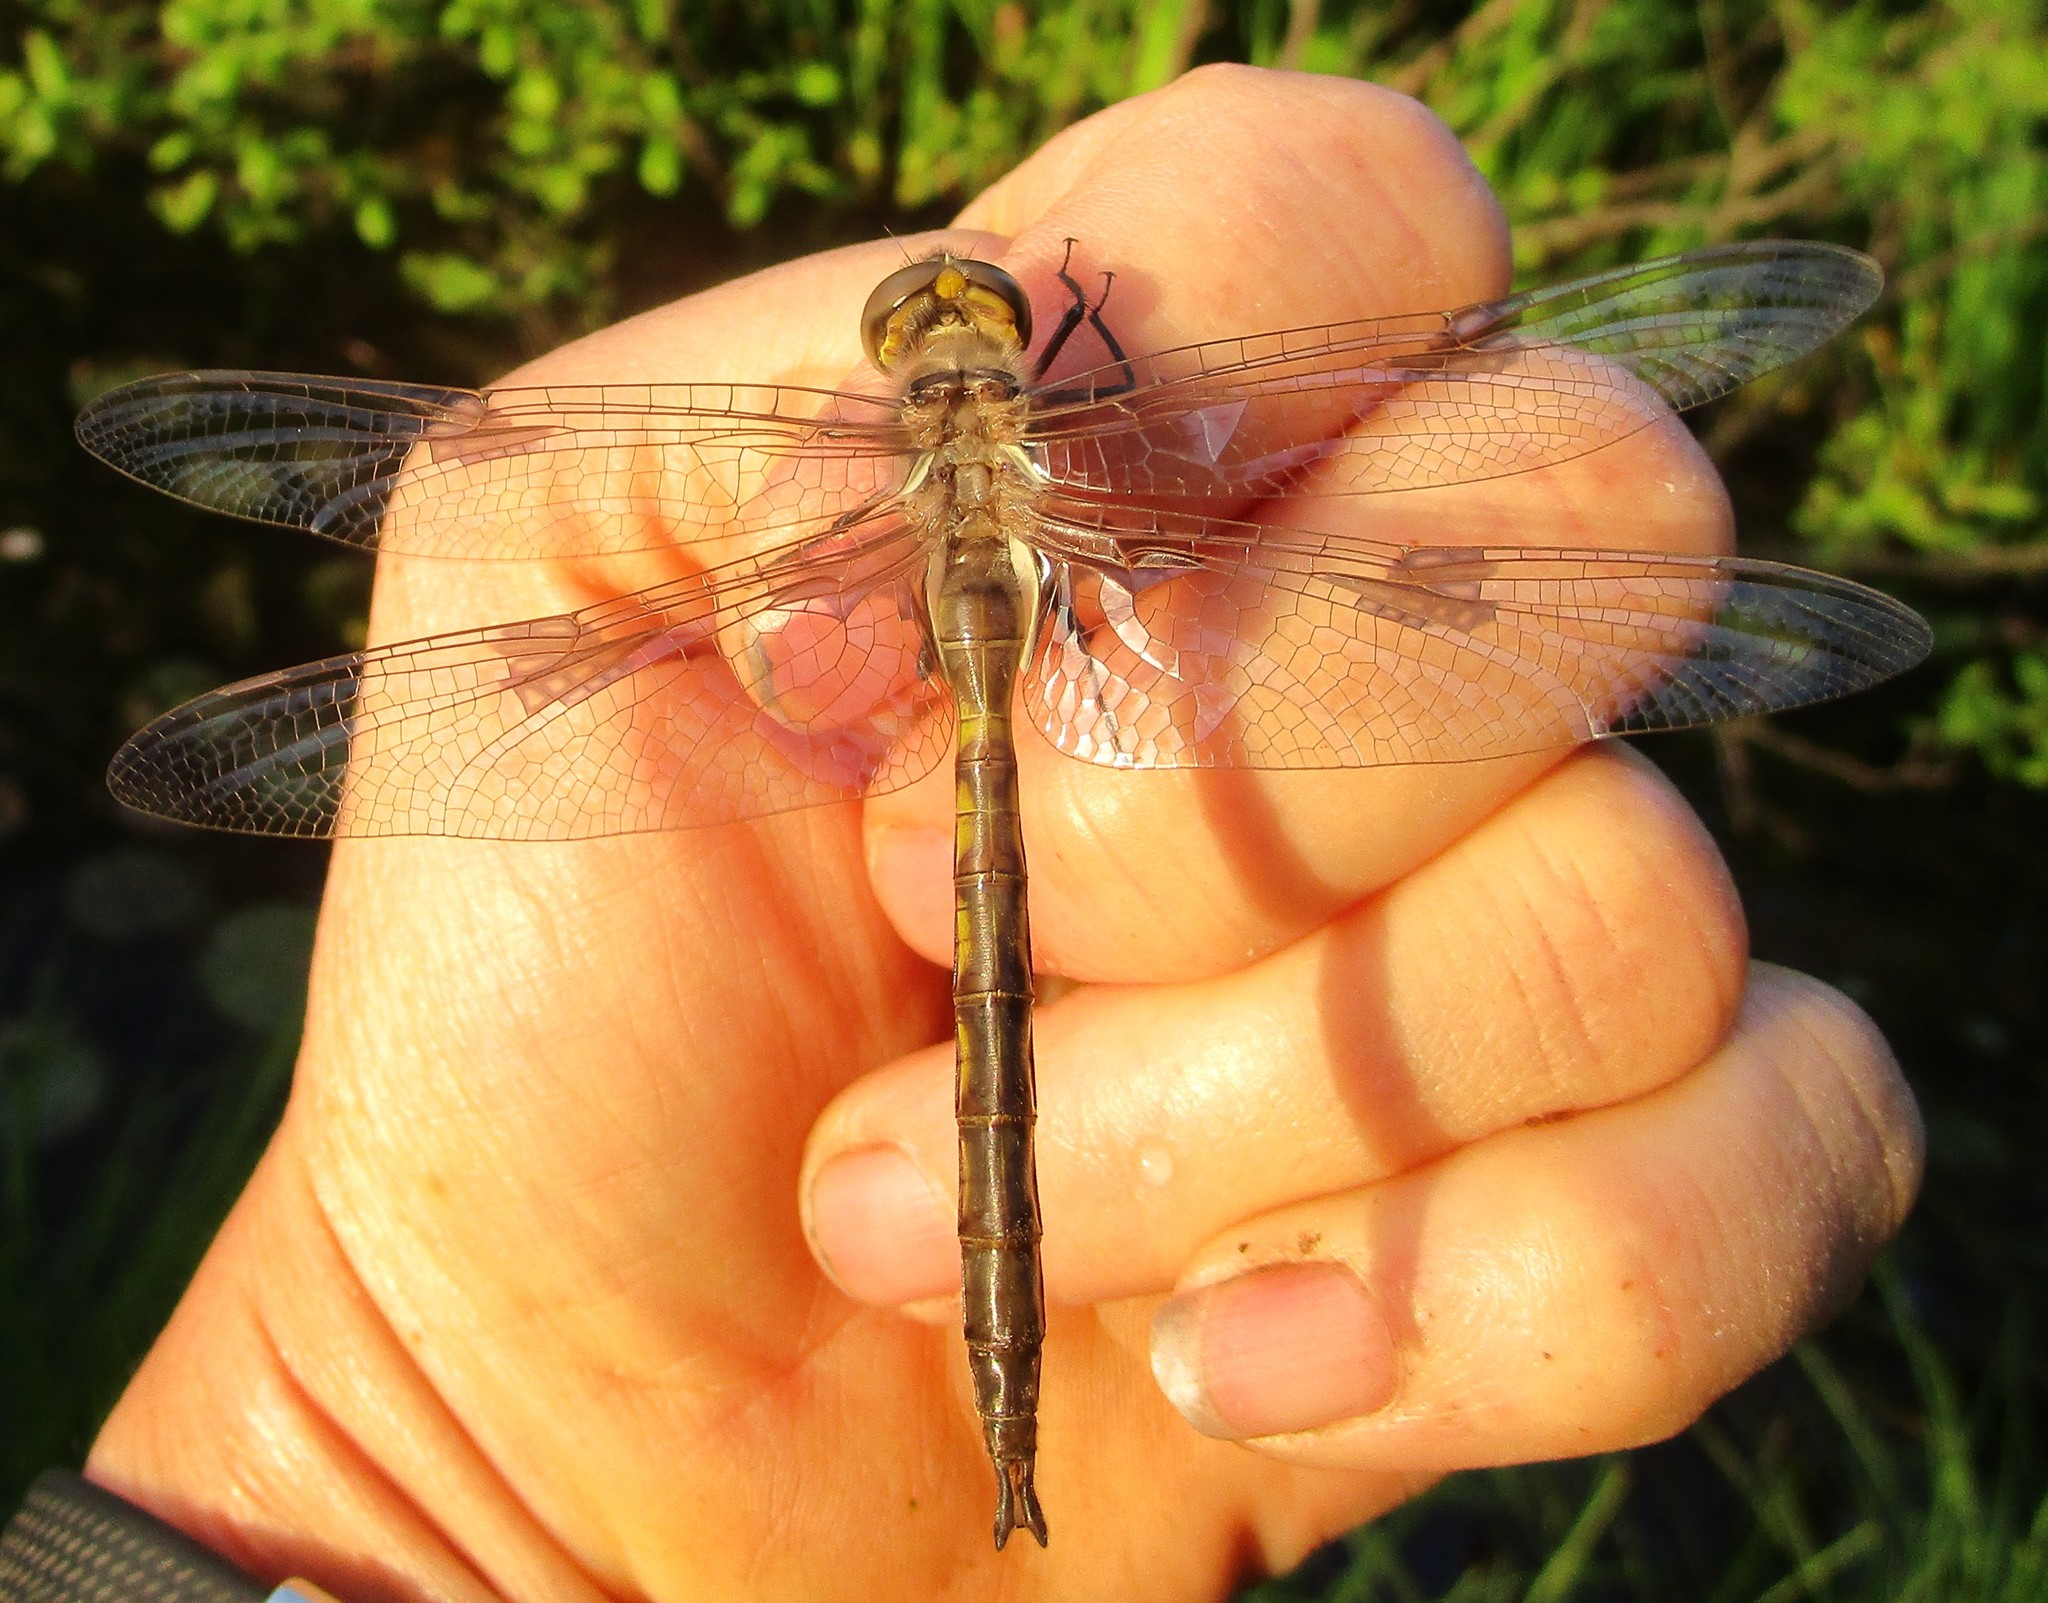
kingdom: Animalia
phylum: Arthropoda
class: Insecta
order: Odonata
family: Corduliidae
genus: Epitheca
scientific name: Epitheca princeps
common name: Prince baskettail
